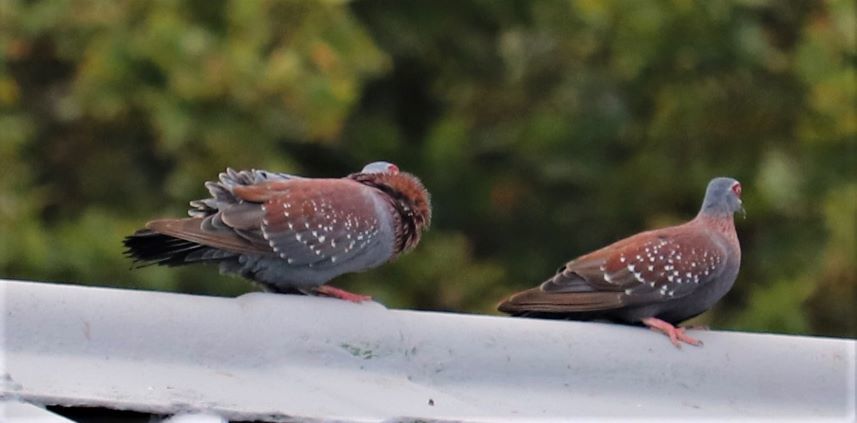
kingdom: Animalia
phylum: Chordata
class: Aves
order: Columbiformes
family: Columbidae
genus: Columba
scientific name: Columba guinea
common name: Speckled pigeon
